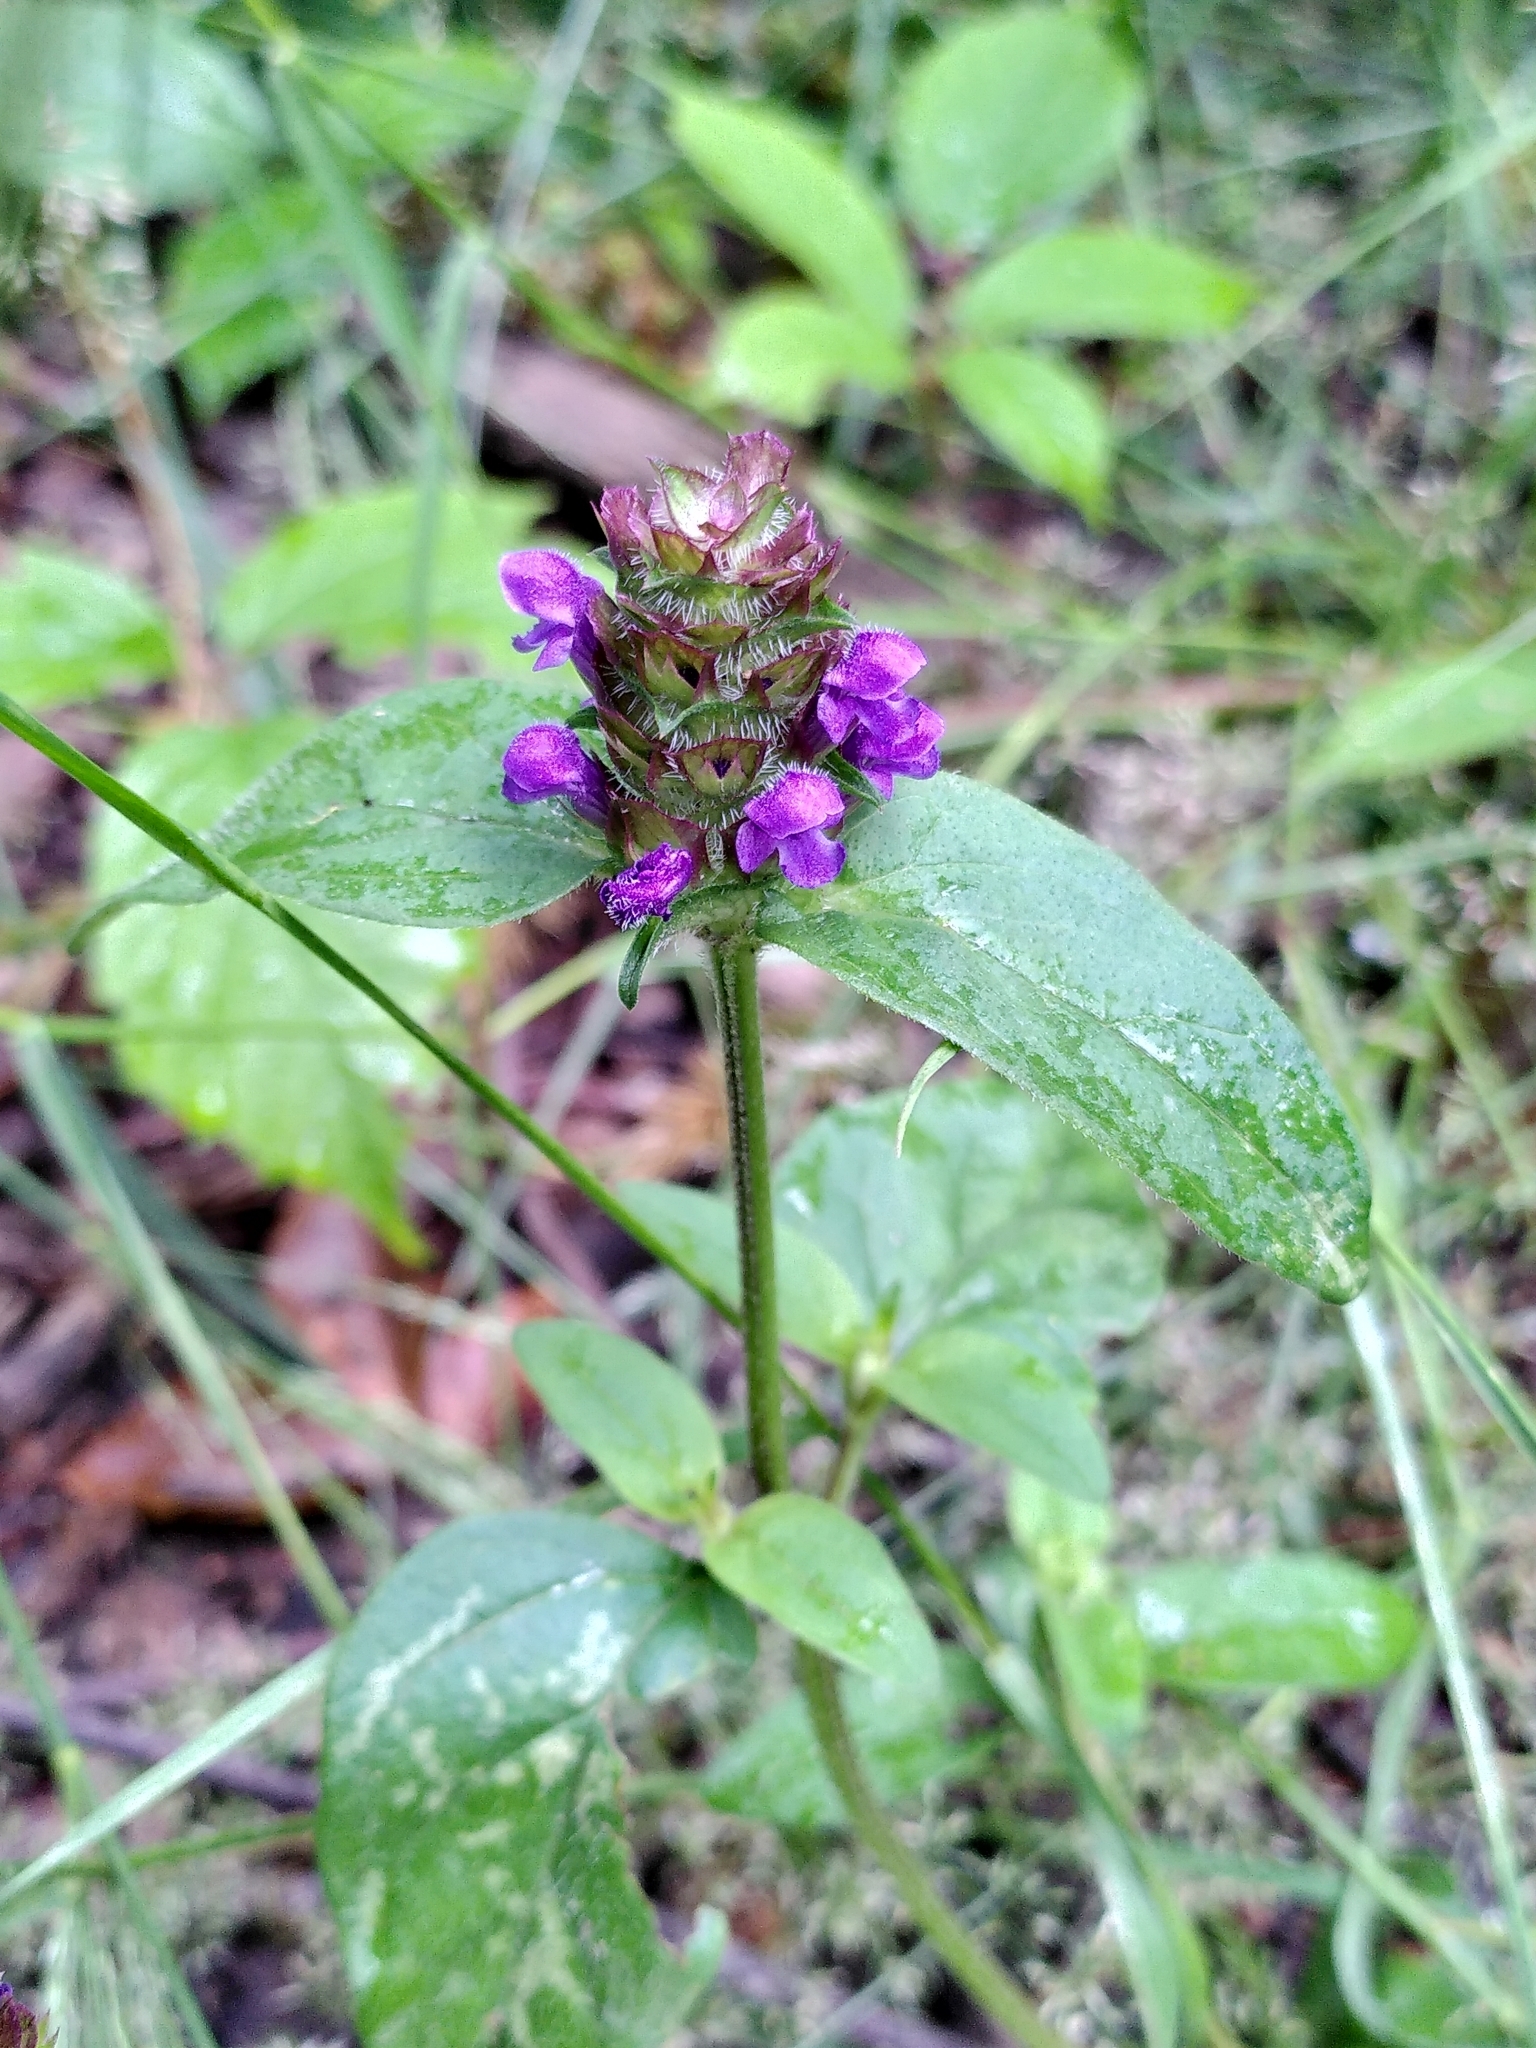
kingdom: Plantae
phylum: Tracheophyta
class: Magnoliopsida
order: Lamiales
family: Lamiaceae
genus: Prunella
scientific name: Prunella vulgaris
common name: Heal-all
